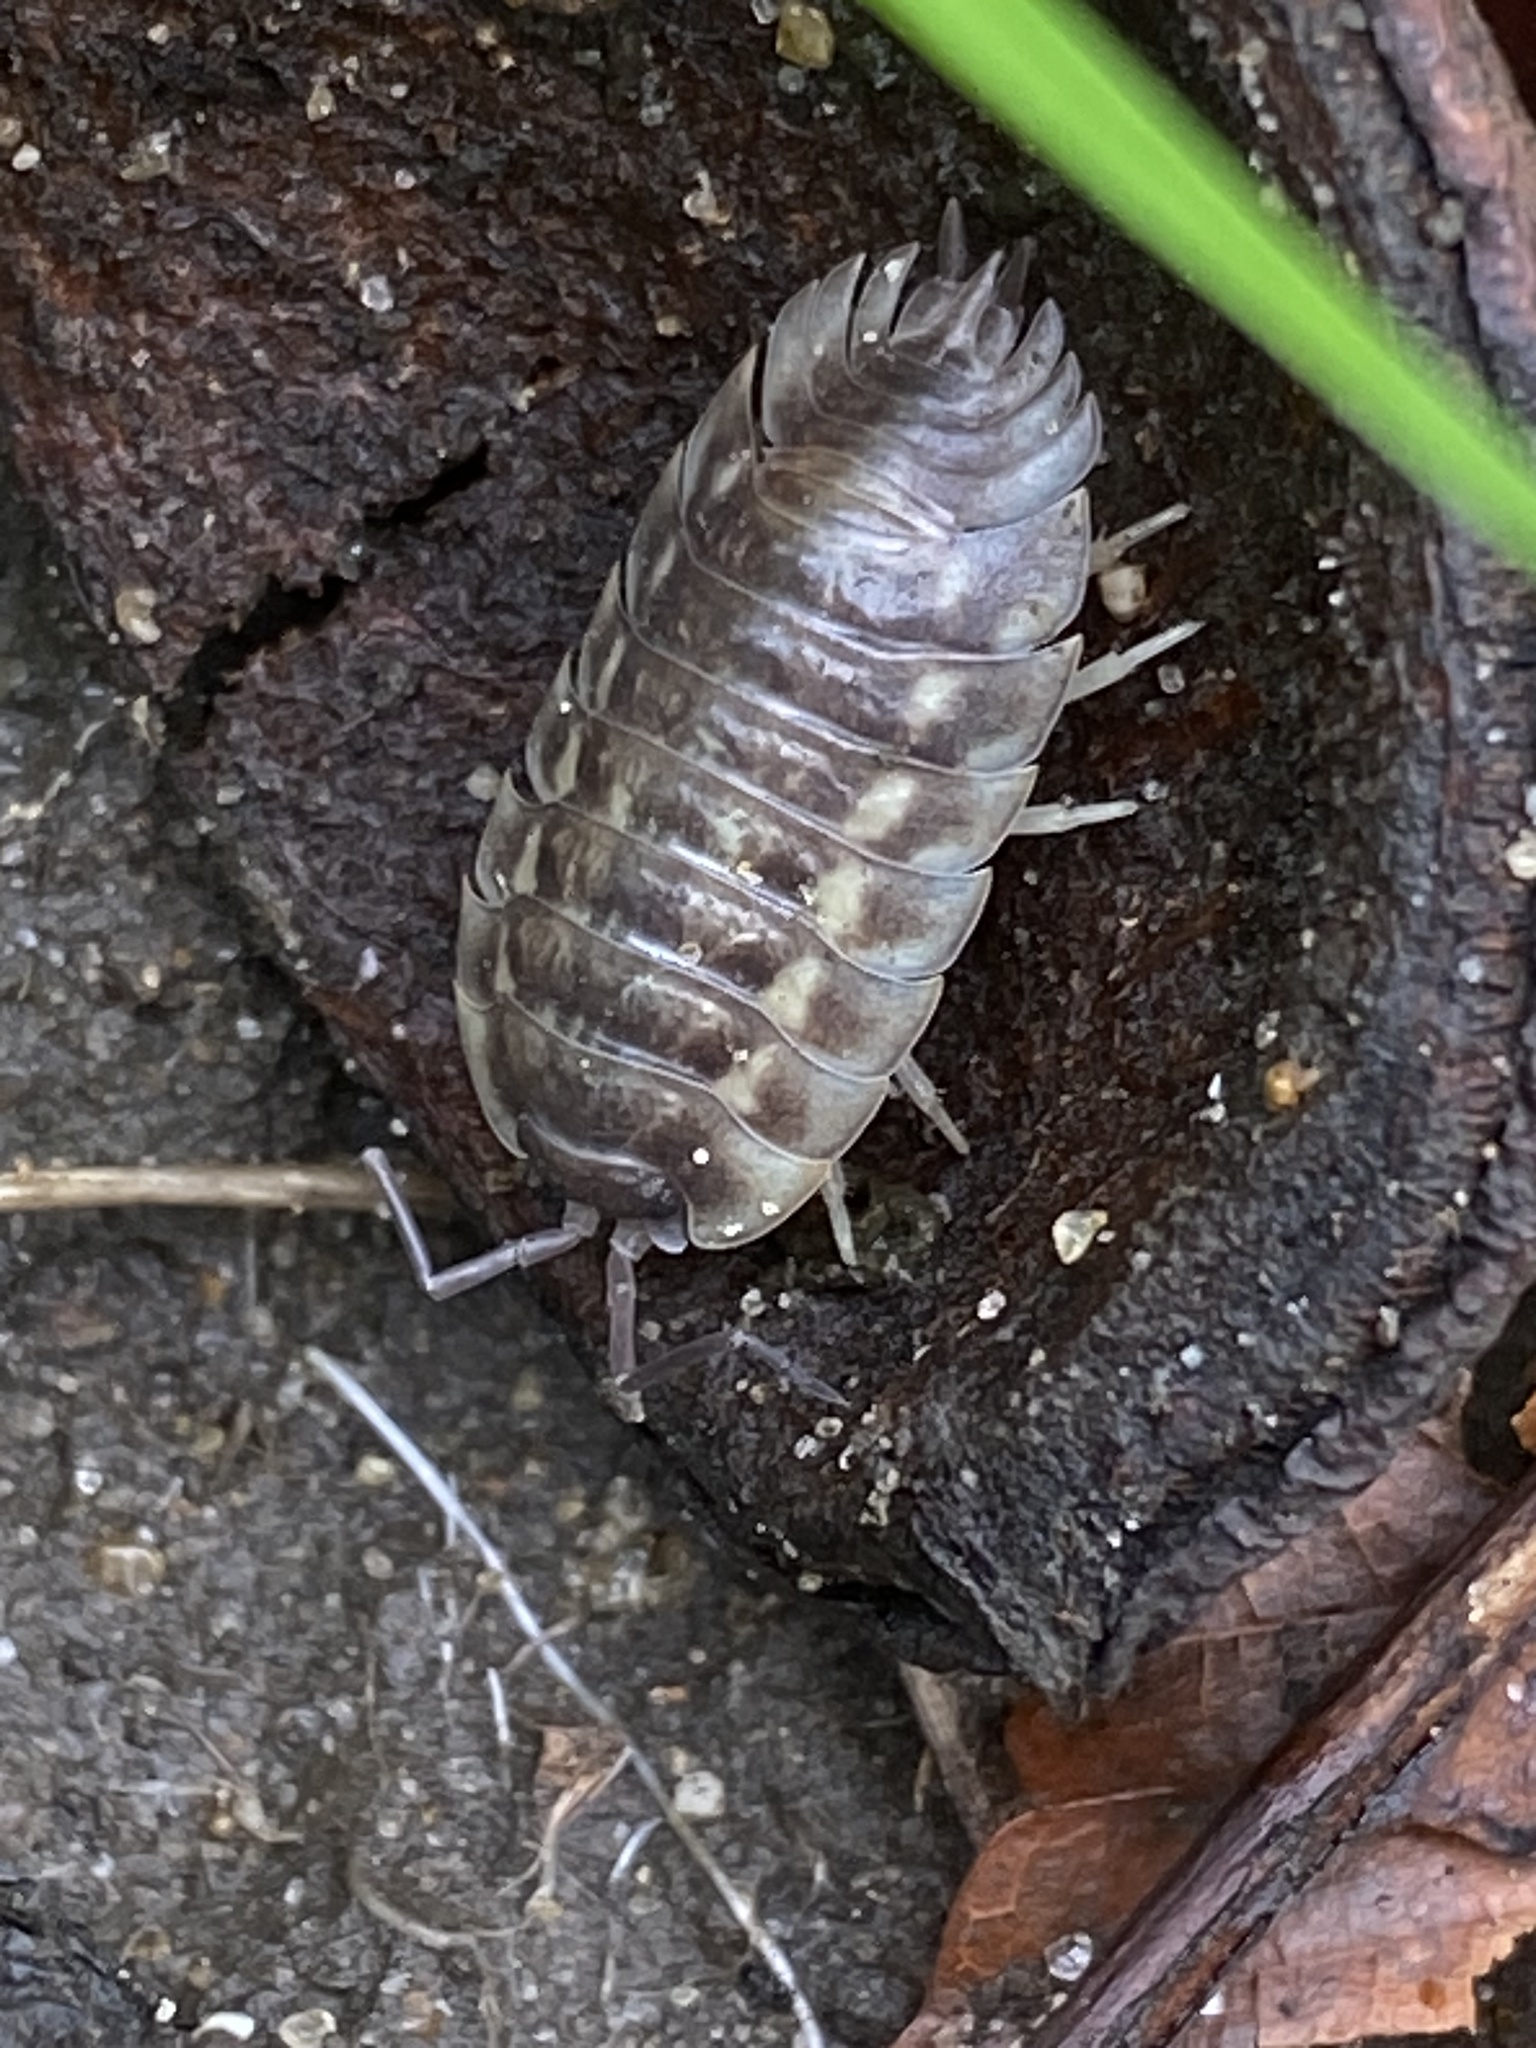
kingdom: Animalia
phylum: Arthropoda
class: Malacostraca
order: Isopoda
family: Oniscidae
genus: Oniscus
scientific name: Oniscus asellus
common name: Common shiny woodlouse
